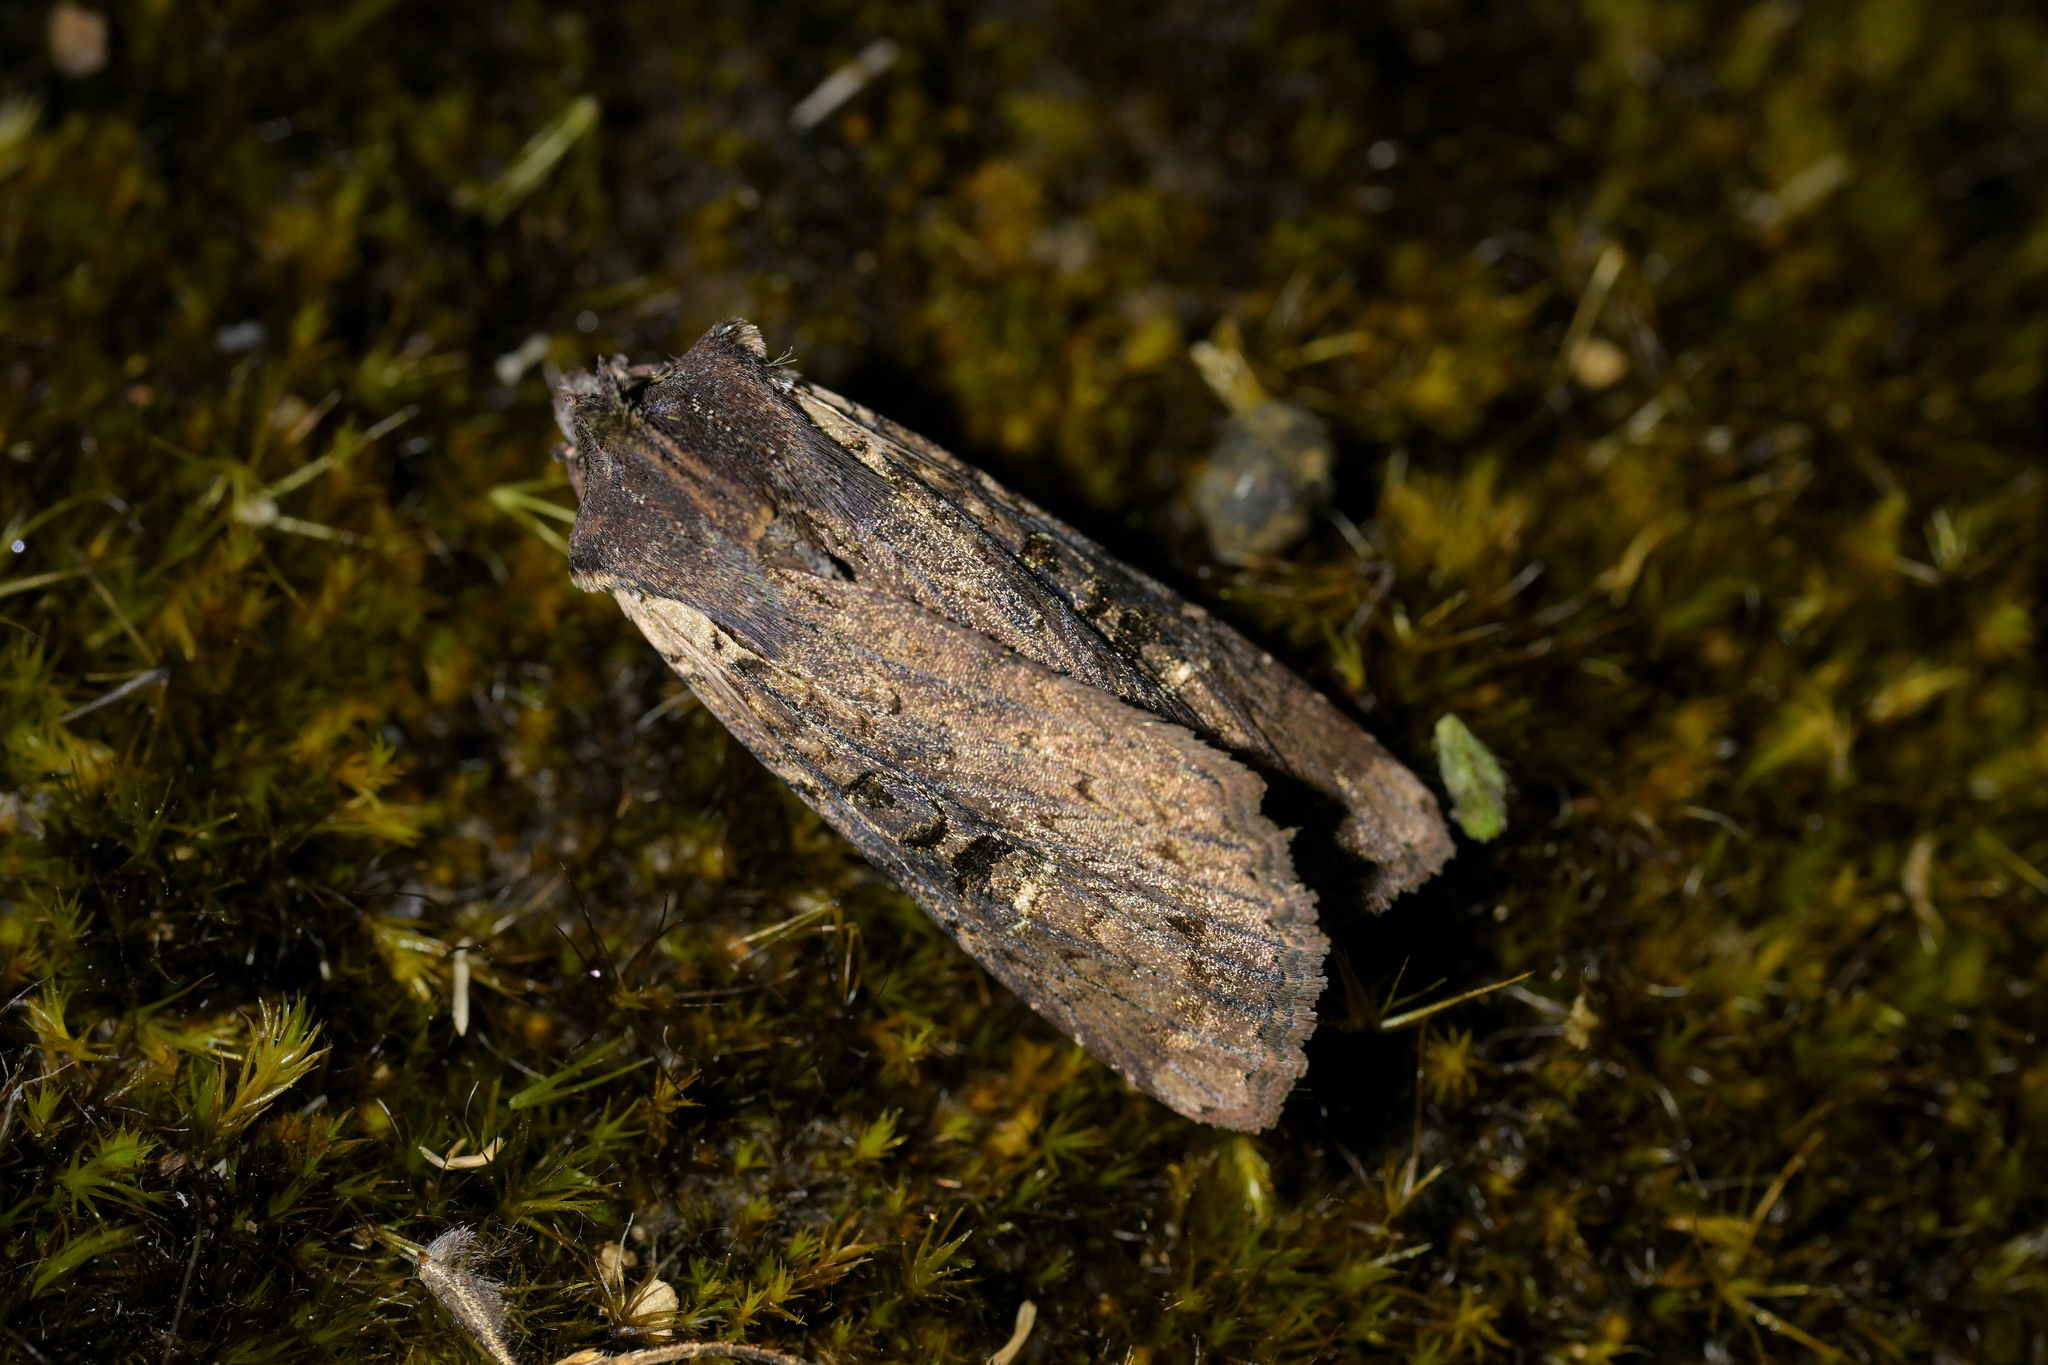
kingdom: Animalia
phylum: Arthropoda
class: Insecta
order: Lepidoptera
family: Noctuidae
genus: Ichneutica
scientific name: Ichneutica omoplaca
